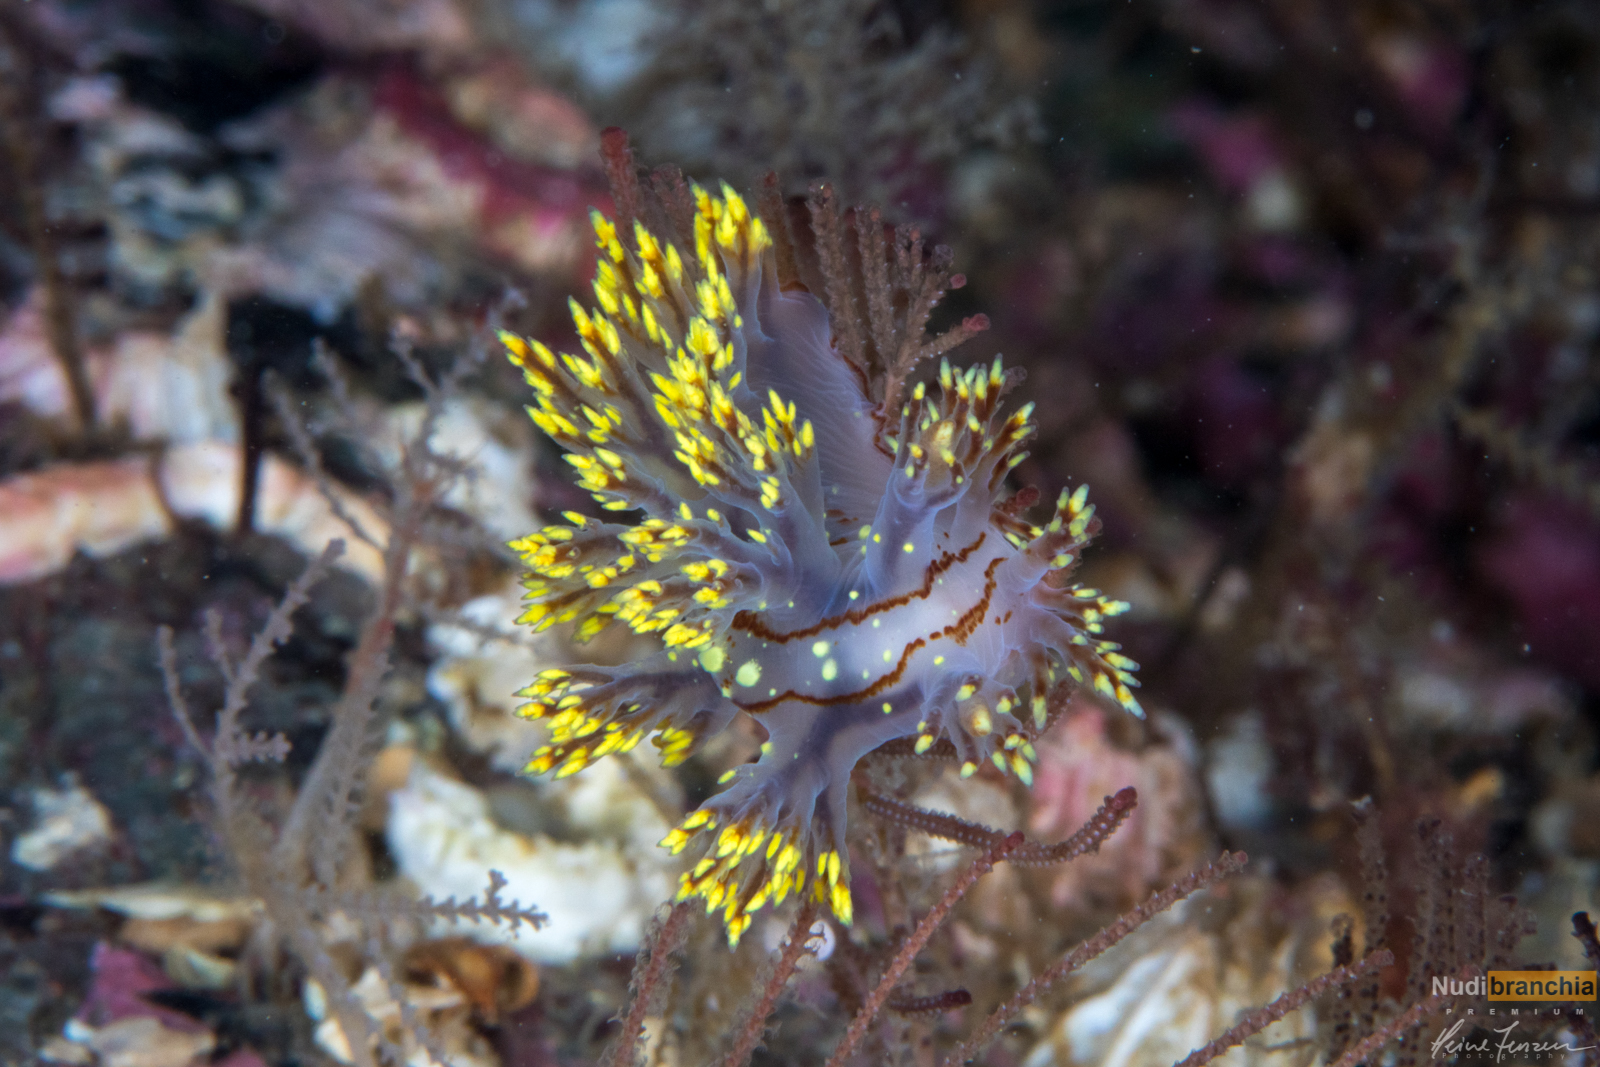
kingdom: Animalia
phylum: Mollusca
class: Gastropoda
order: Nudibranchia
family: Dendronotidae
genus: Dendronotus
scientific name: Dendronotus yrjargul
